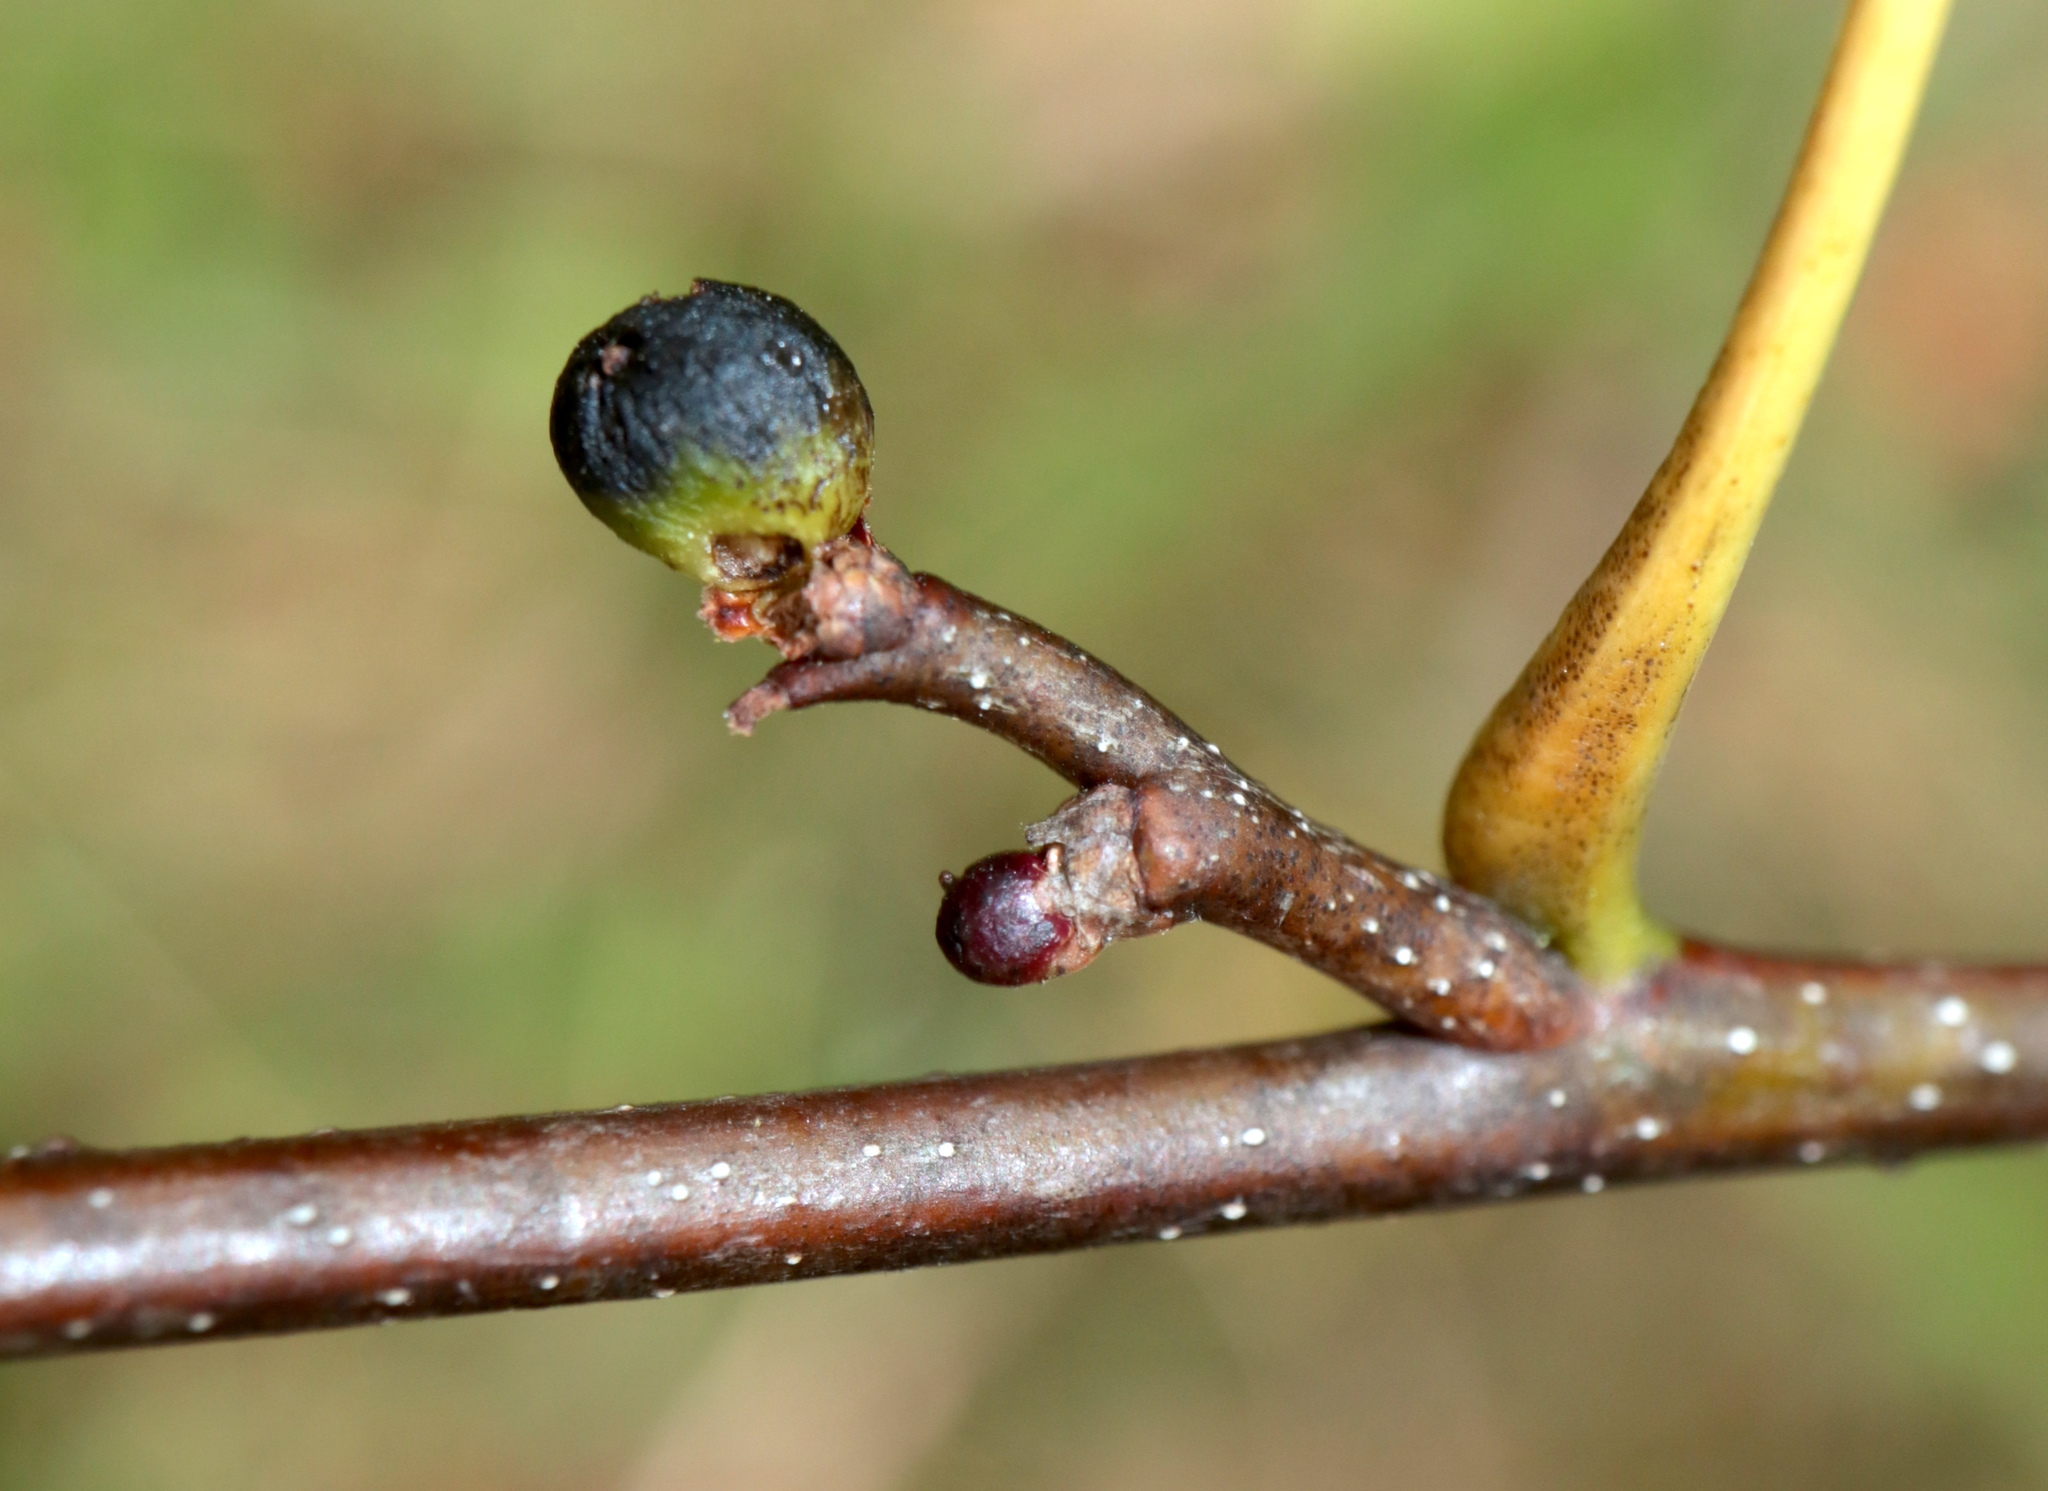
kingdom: Animalia
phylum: Arthropoda
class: Insecta
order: Hymenoptera
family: Cynipidae
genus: Callirhytis
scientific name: Callirhytis
